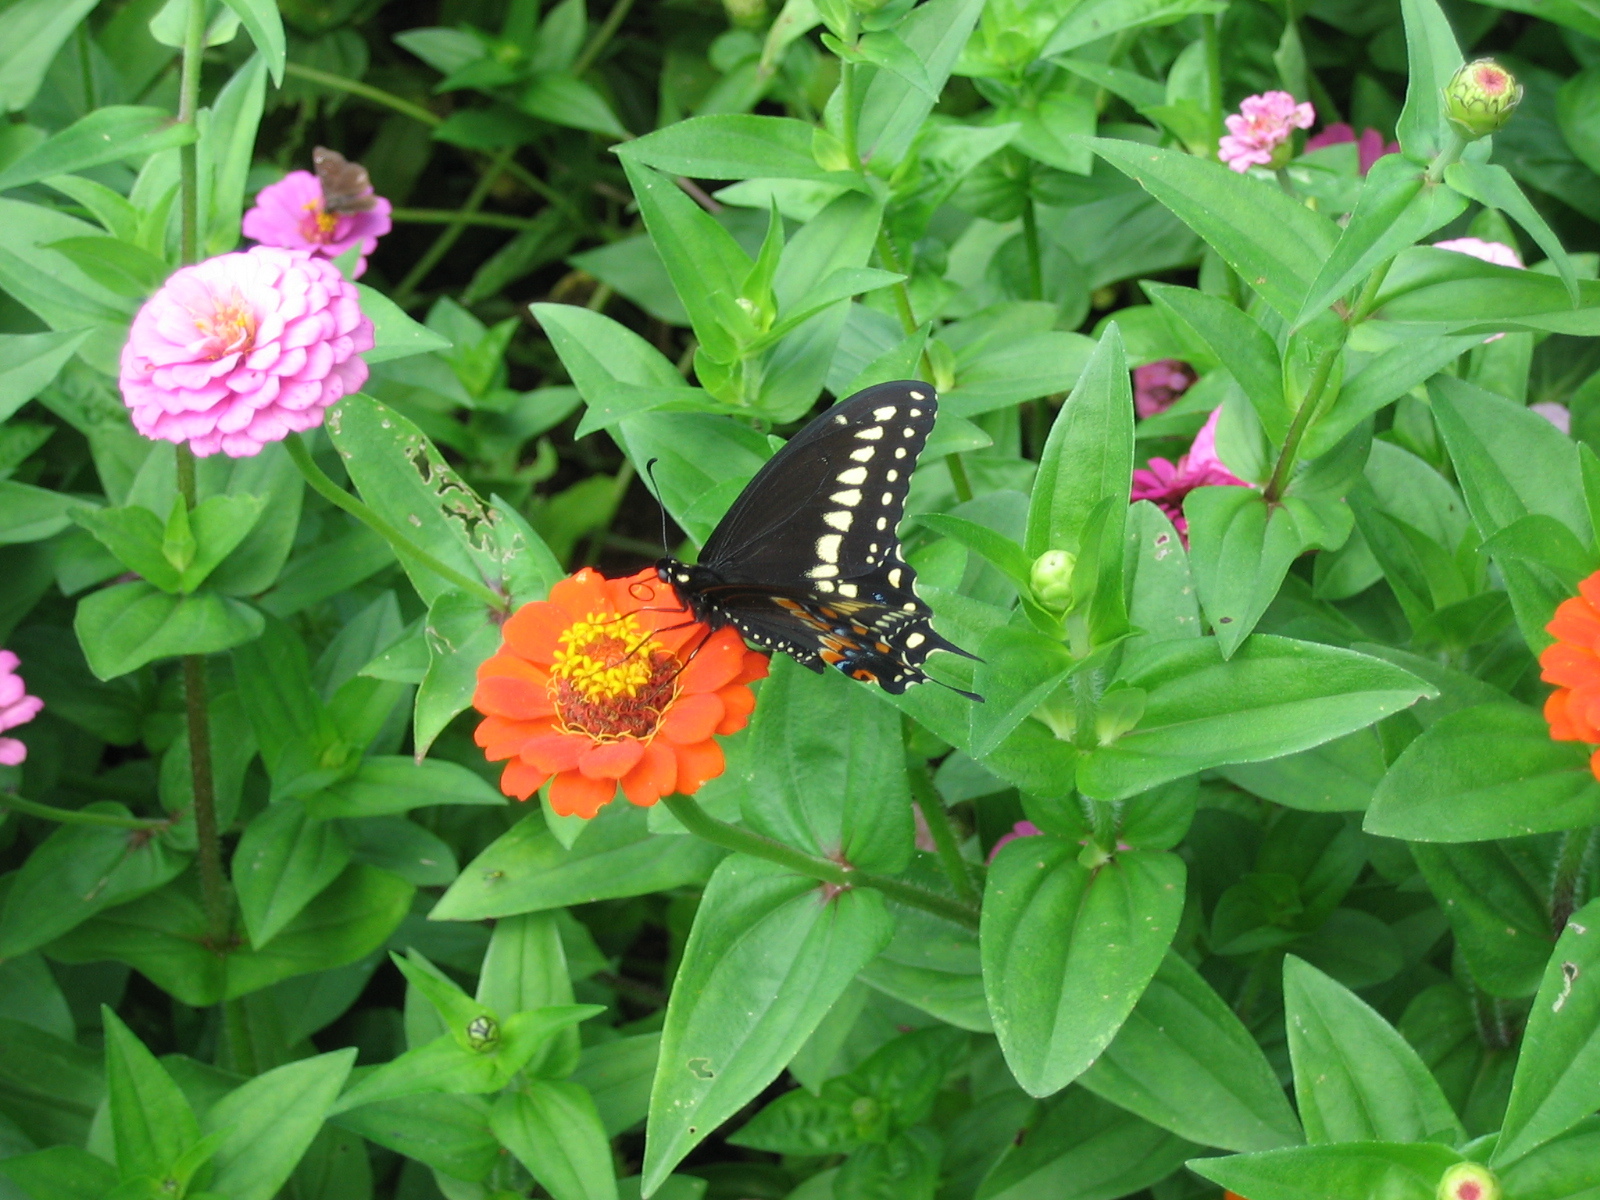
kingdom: Animalia
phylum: Arthropoda
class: Insecta
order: Lepidoptera
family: Papilionidae
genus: Papilio
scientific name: Papilio polyxenes
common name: Black swallowtail
